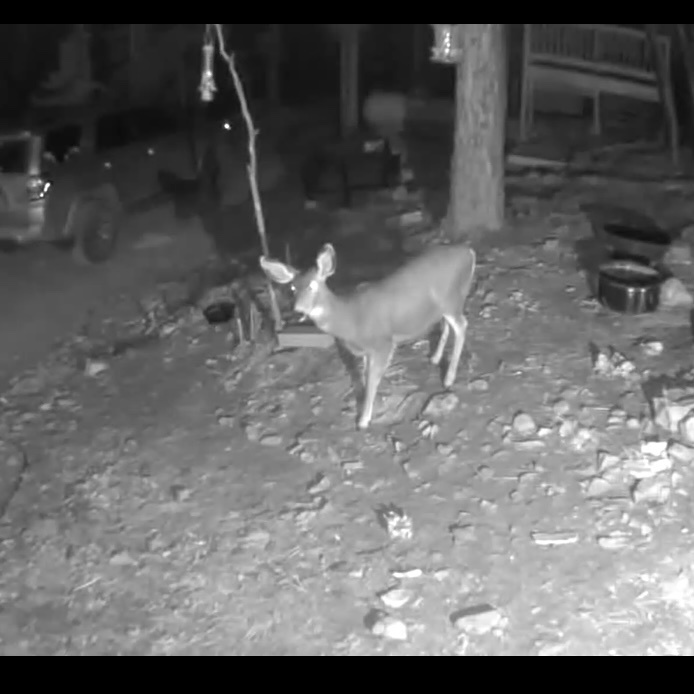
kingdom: Animalia
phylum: Chordata
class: Mammalia
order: Artiodactyla
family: Cervidae
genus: Odocoileus
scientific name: Odocoileus hemionus
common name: Mule deer
